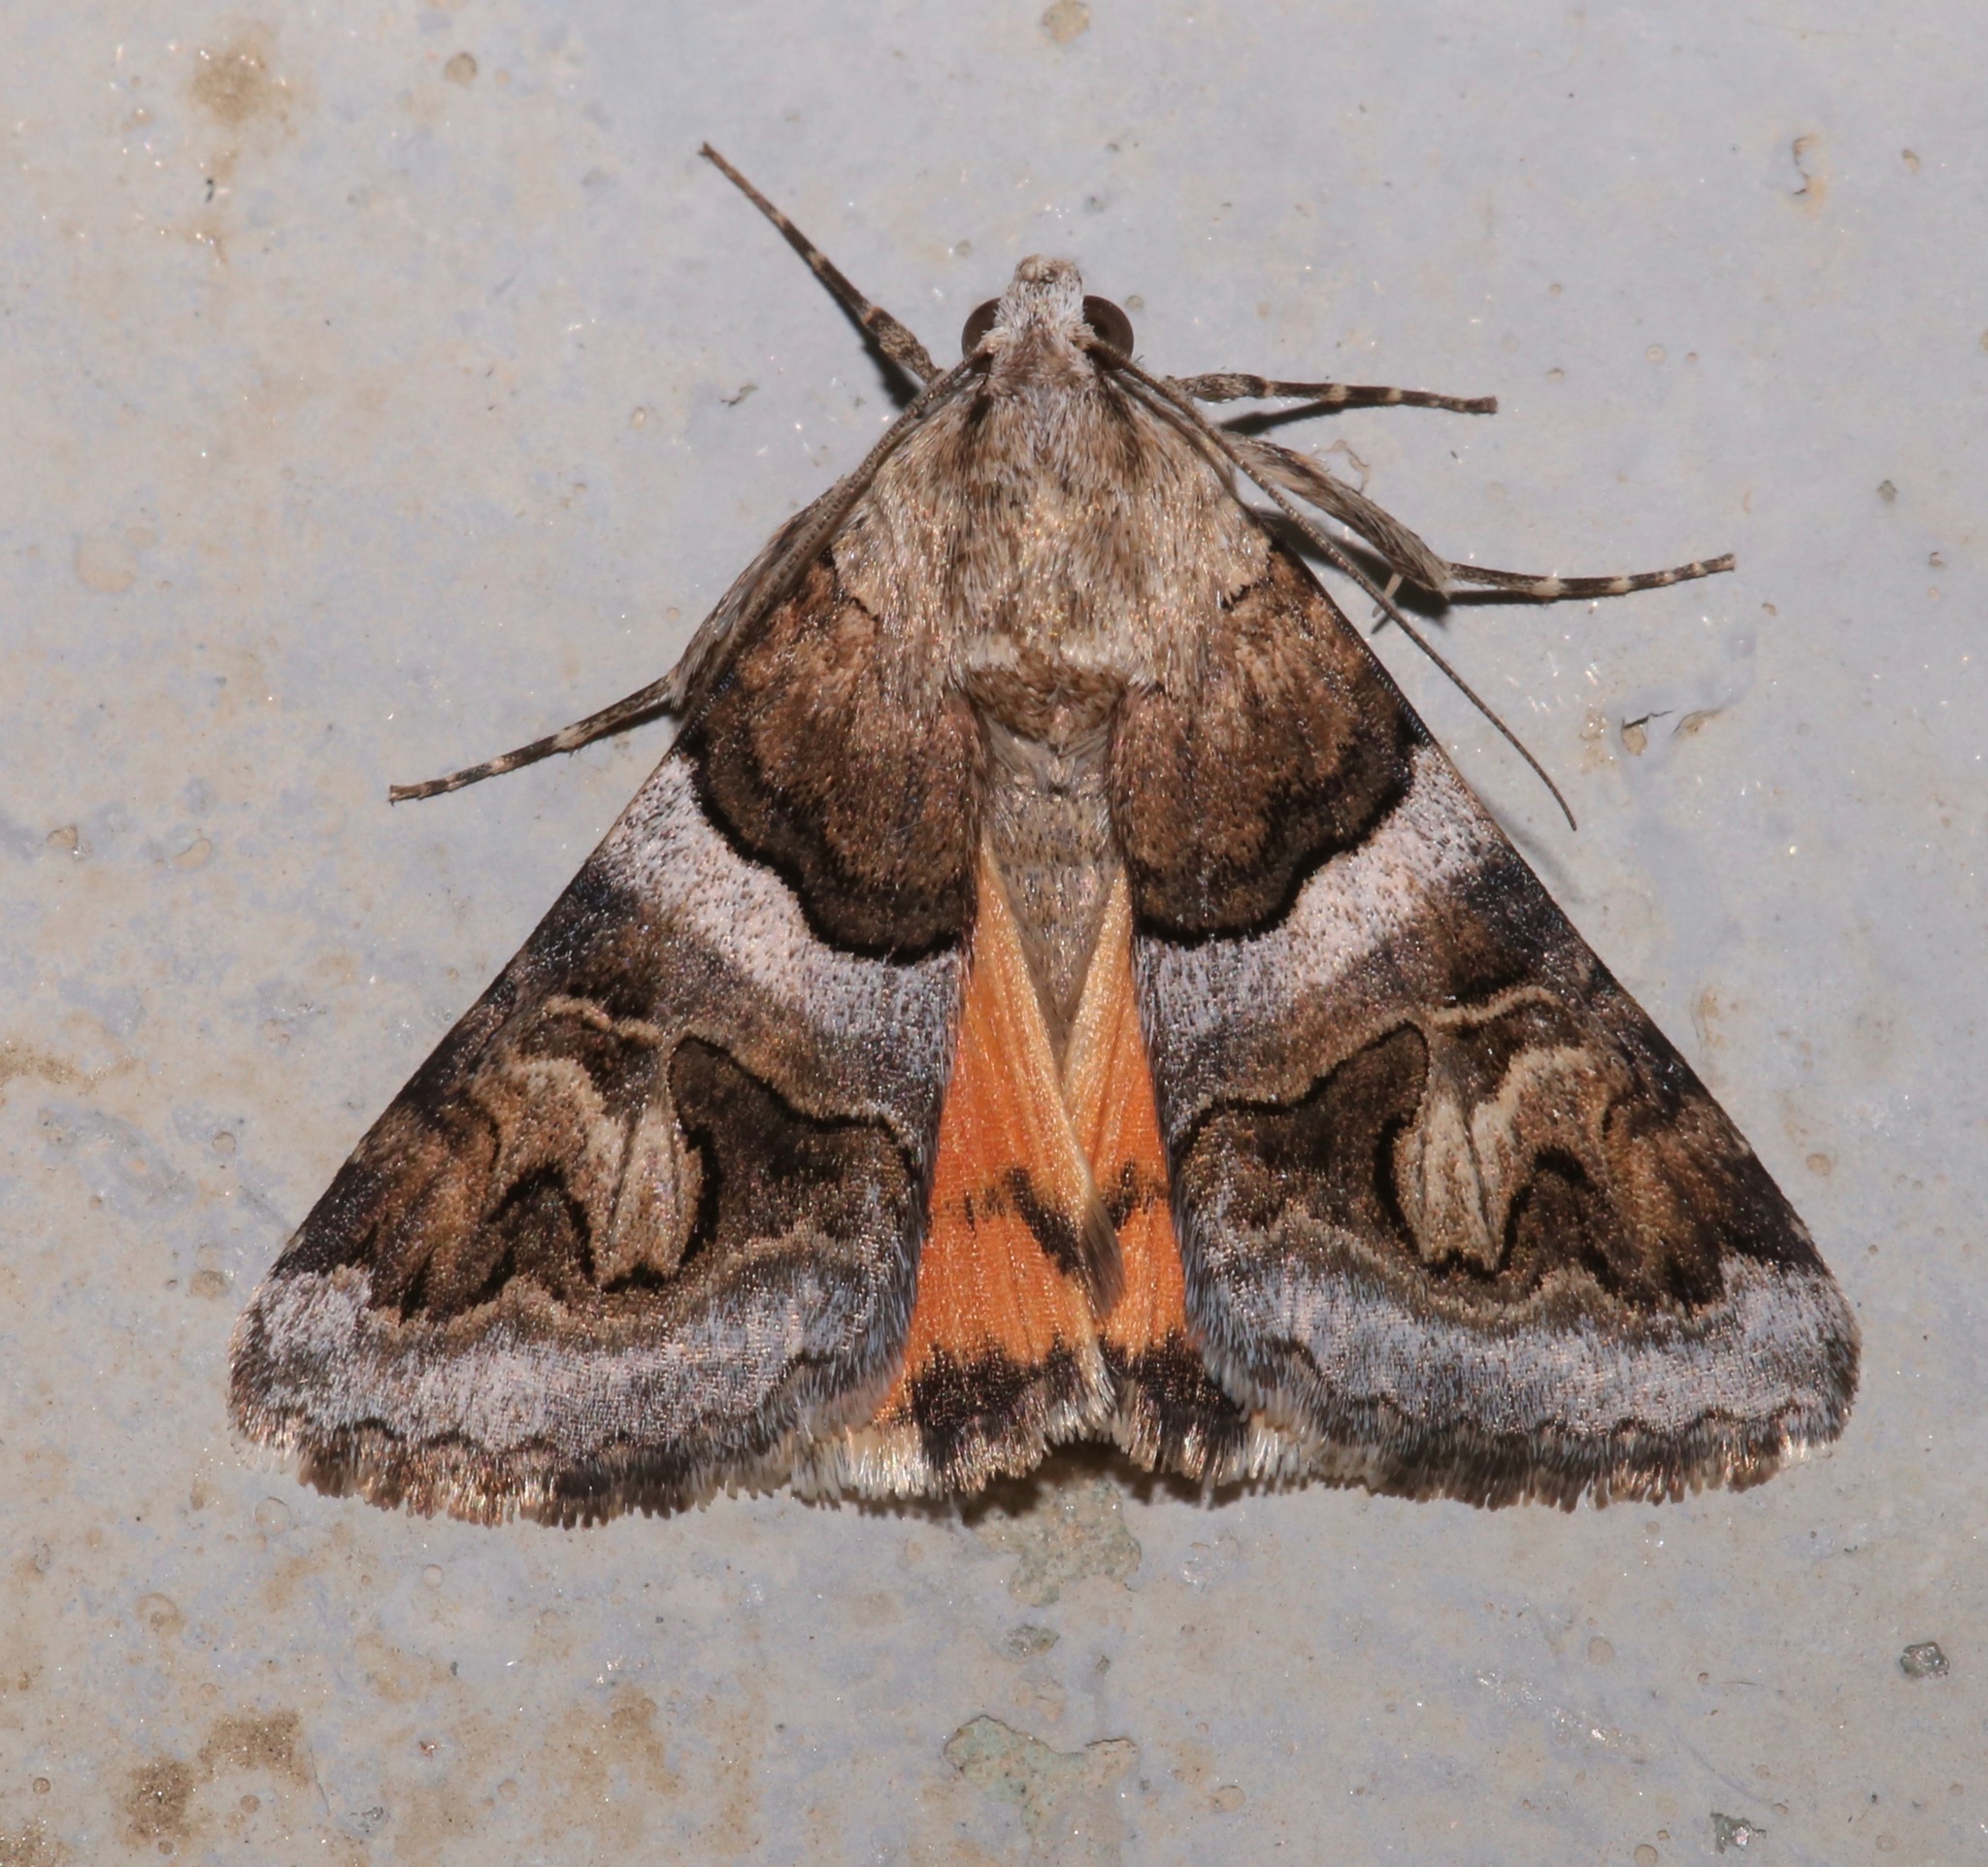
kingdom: Animalia
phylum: Arthropoda
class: Insecta
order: Lepidoptera
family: Erebidae
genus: Drasteria
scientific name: Drasteria howlandii
